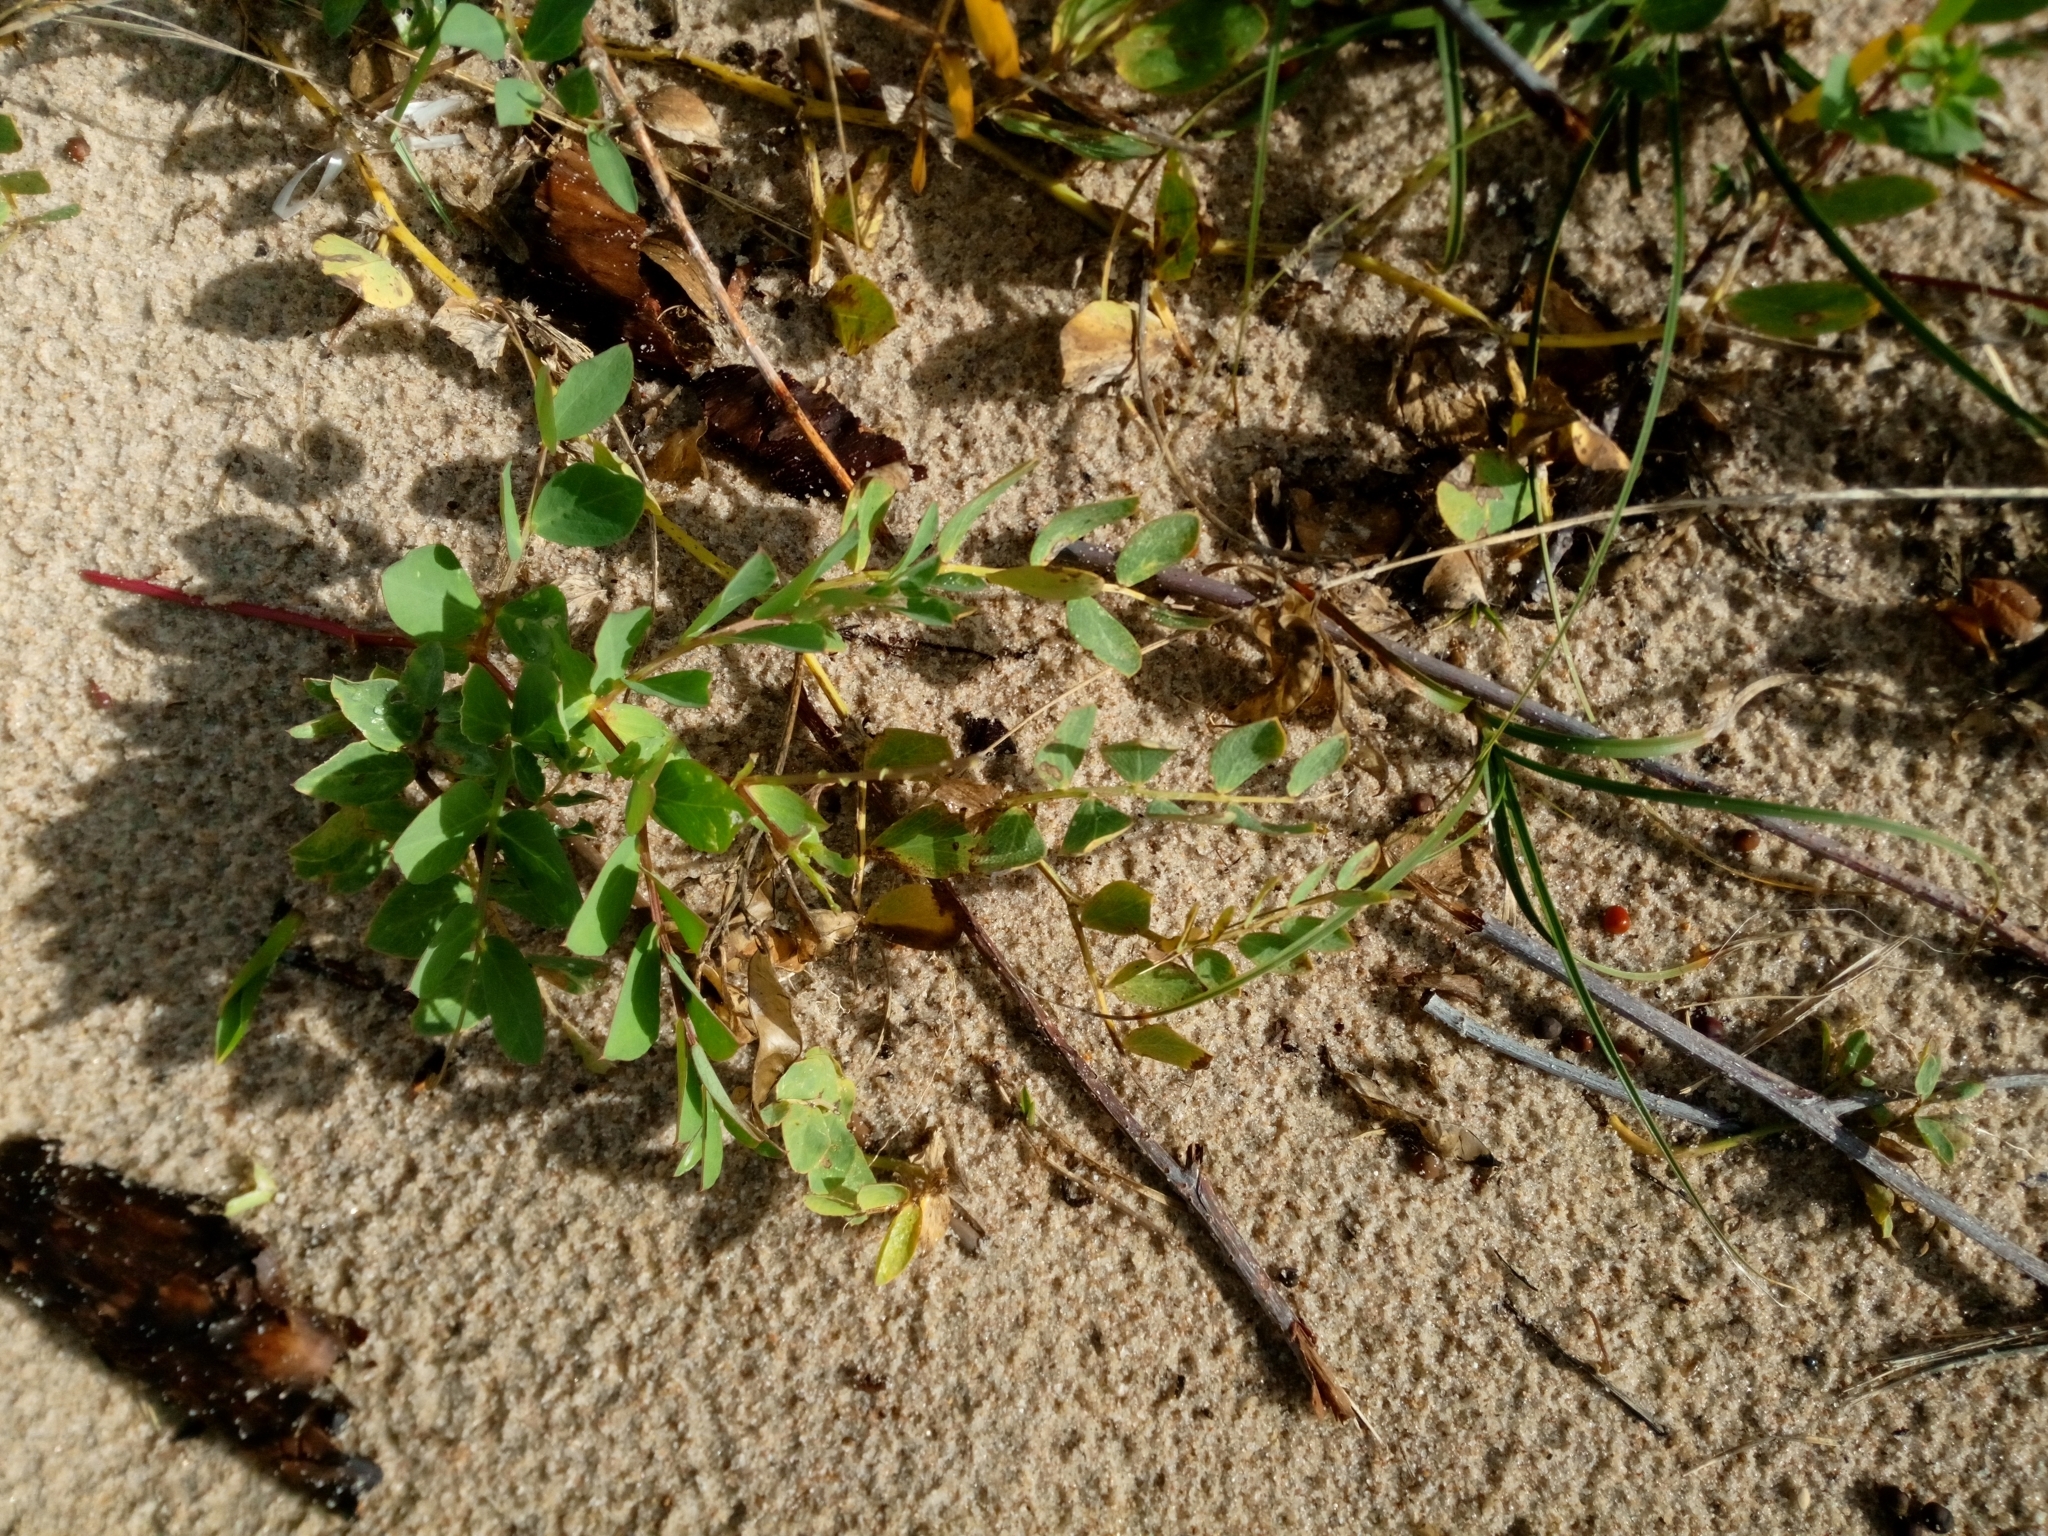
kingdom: Plantae
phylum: Tracheophyta
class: Magnoliopsida
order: Fabales
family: Fabaceae
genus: Lathyrus
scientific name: Lathyrus japonicus
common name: Sea pea
